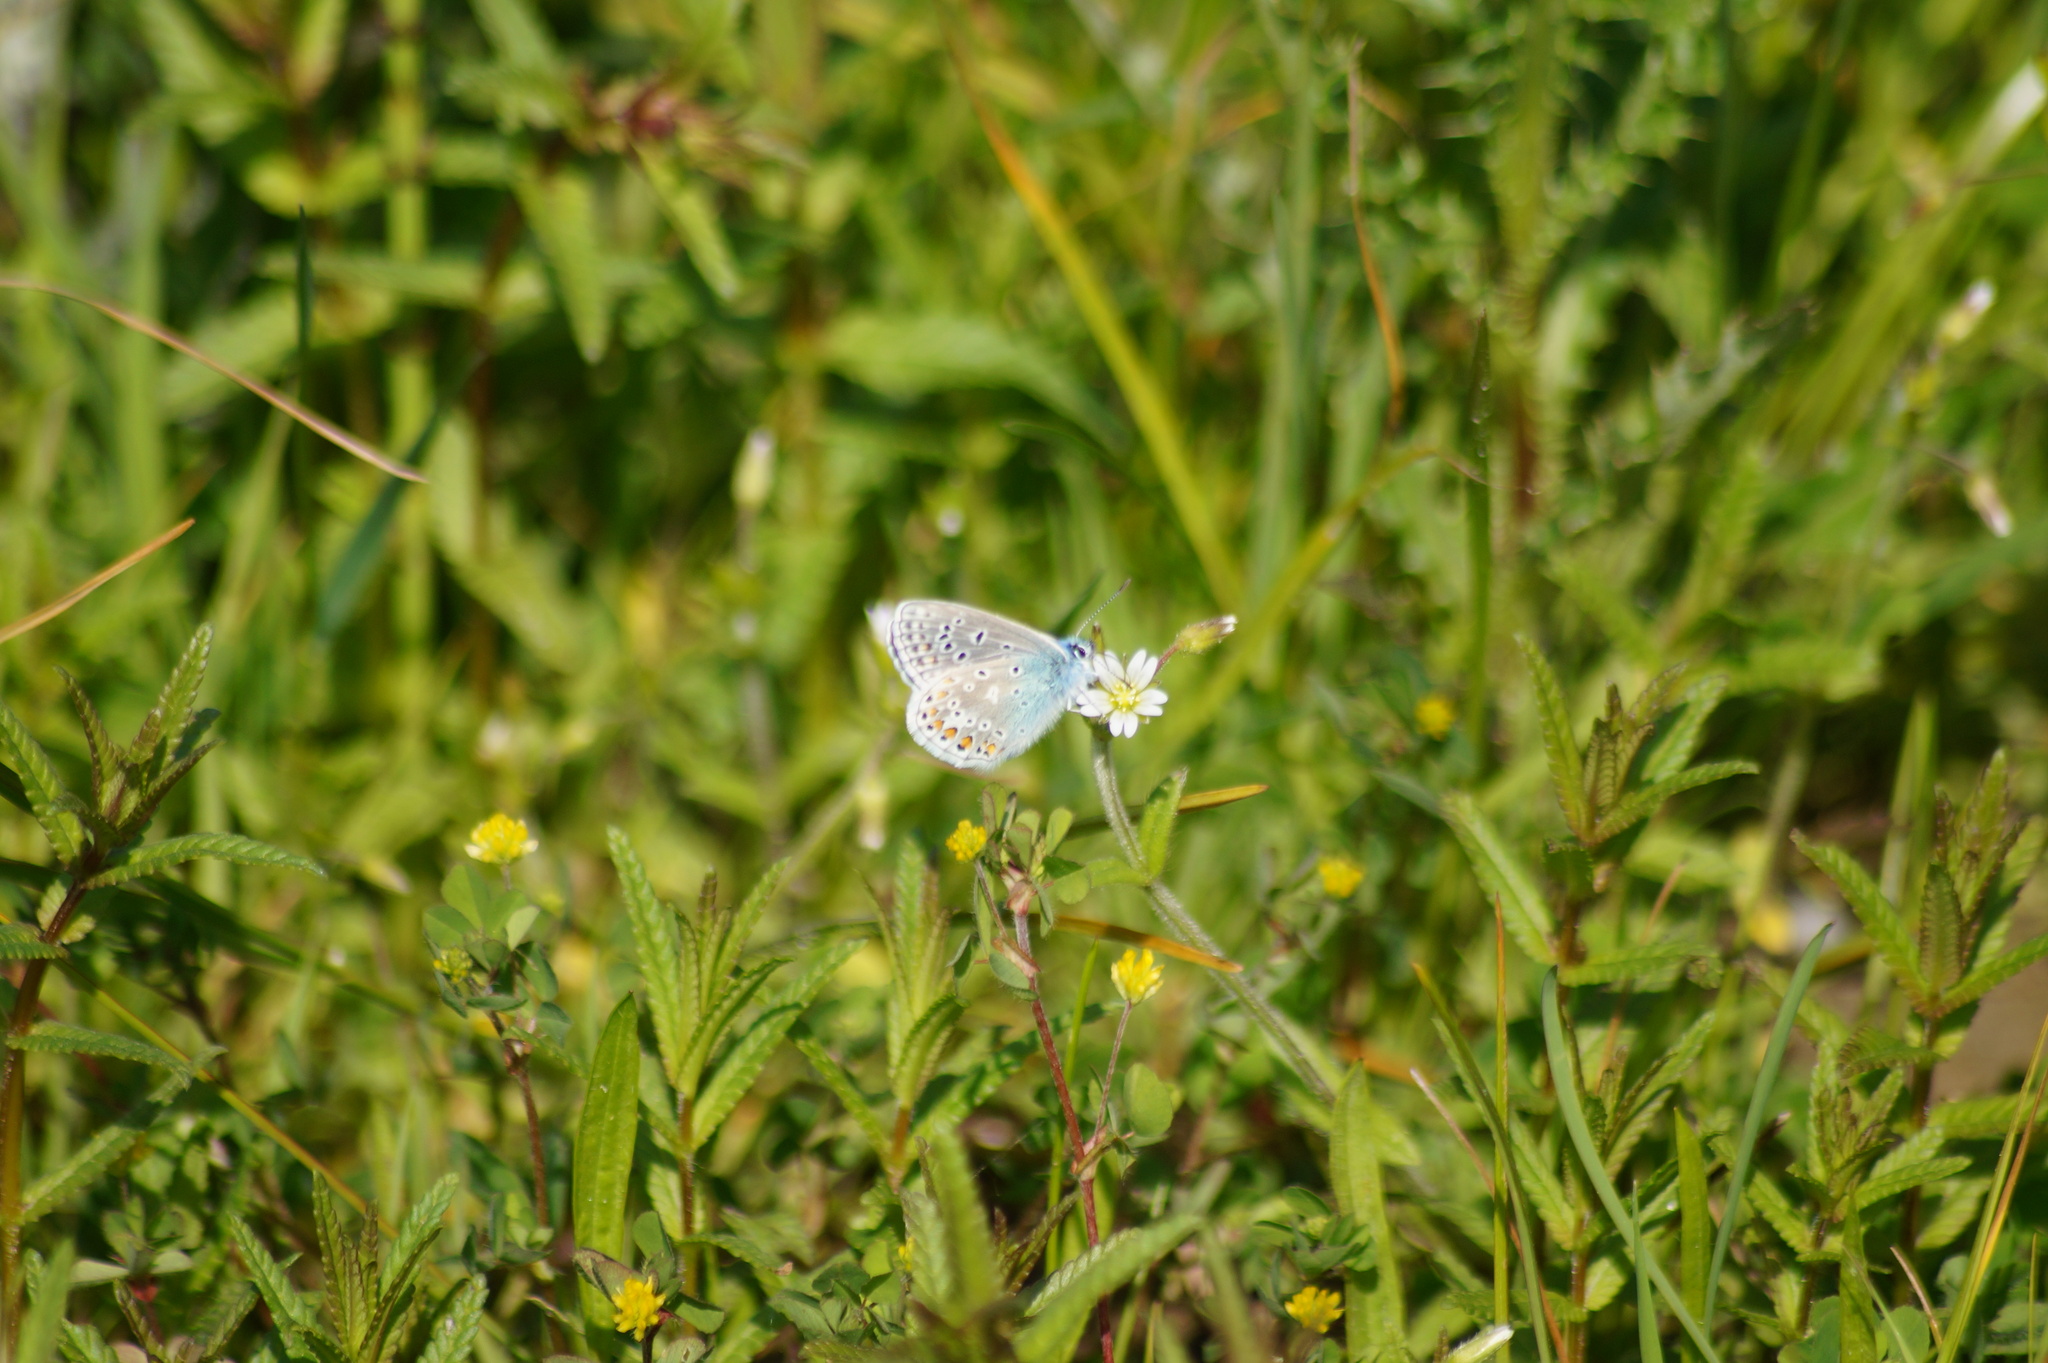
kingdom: Animalia
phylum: Arthropoda
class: Insecta
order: Lepidoptera
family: Lycaenidae
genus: Polyommatus
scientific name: Polyommatus icarus
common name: Common blue
